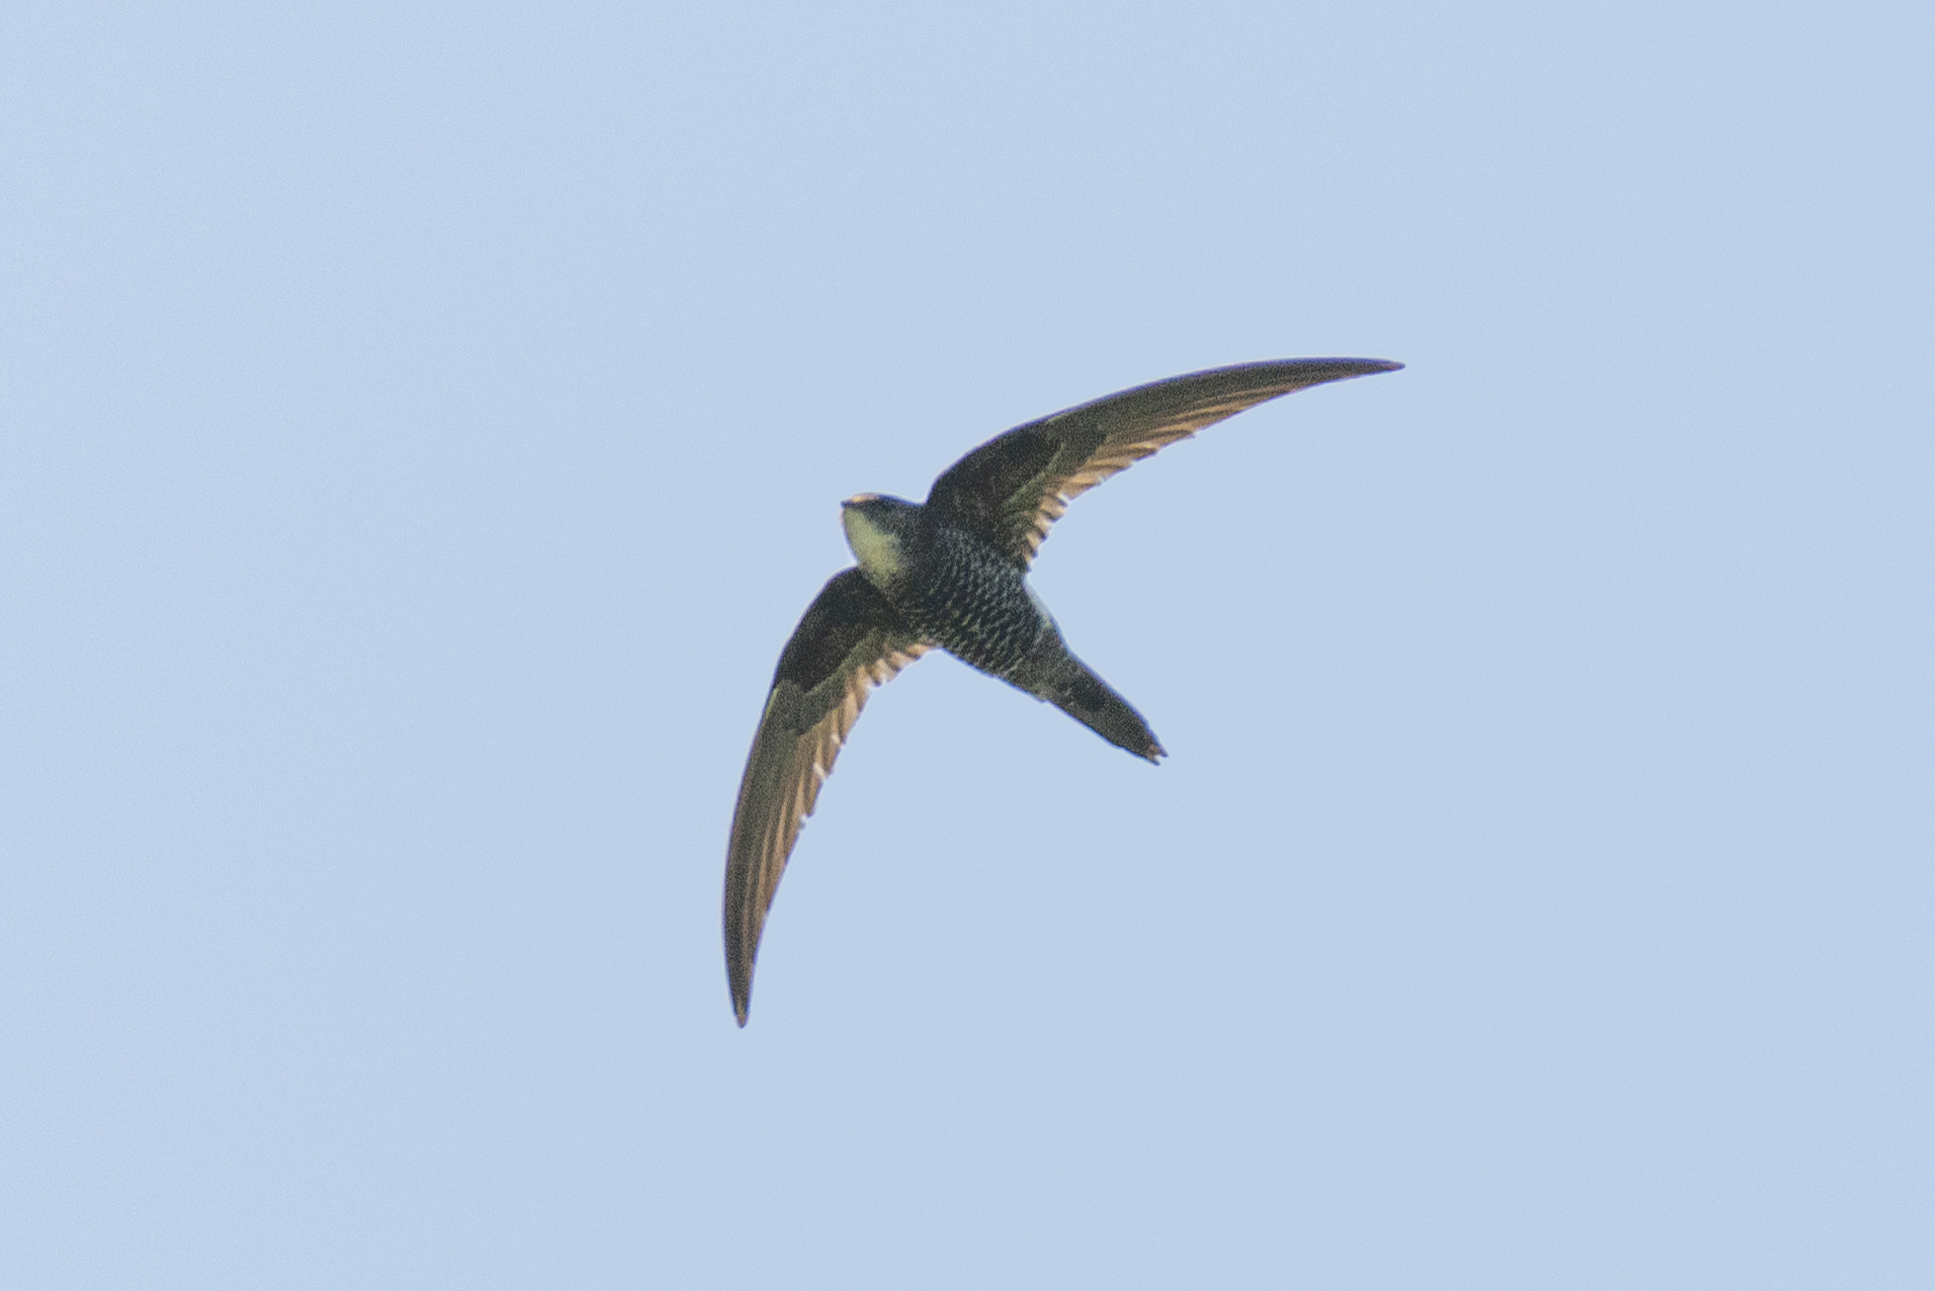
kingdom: Animalia
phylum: Chordata
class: Aves
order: Apodiformes
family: Apodidae
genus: Apus
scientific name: Apus pacificus
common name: Pacific swift
